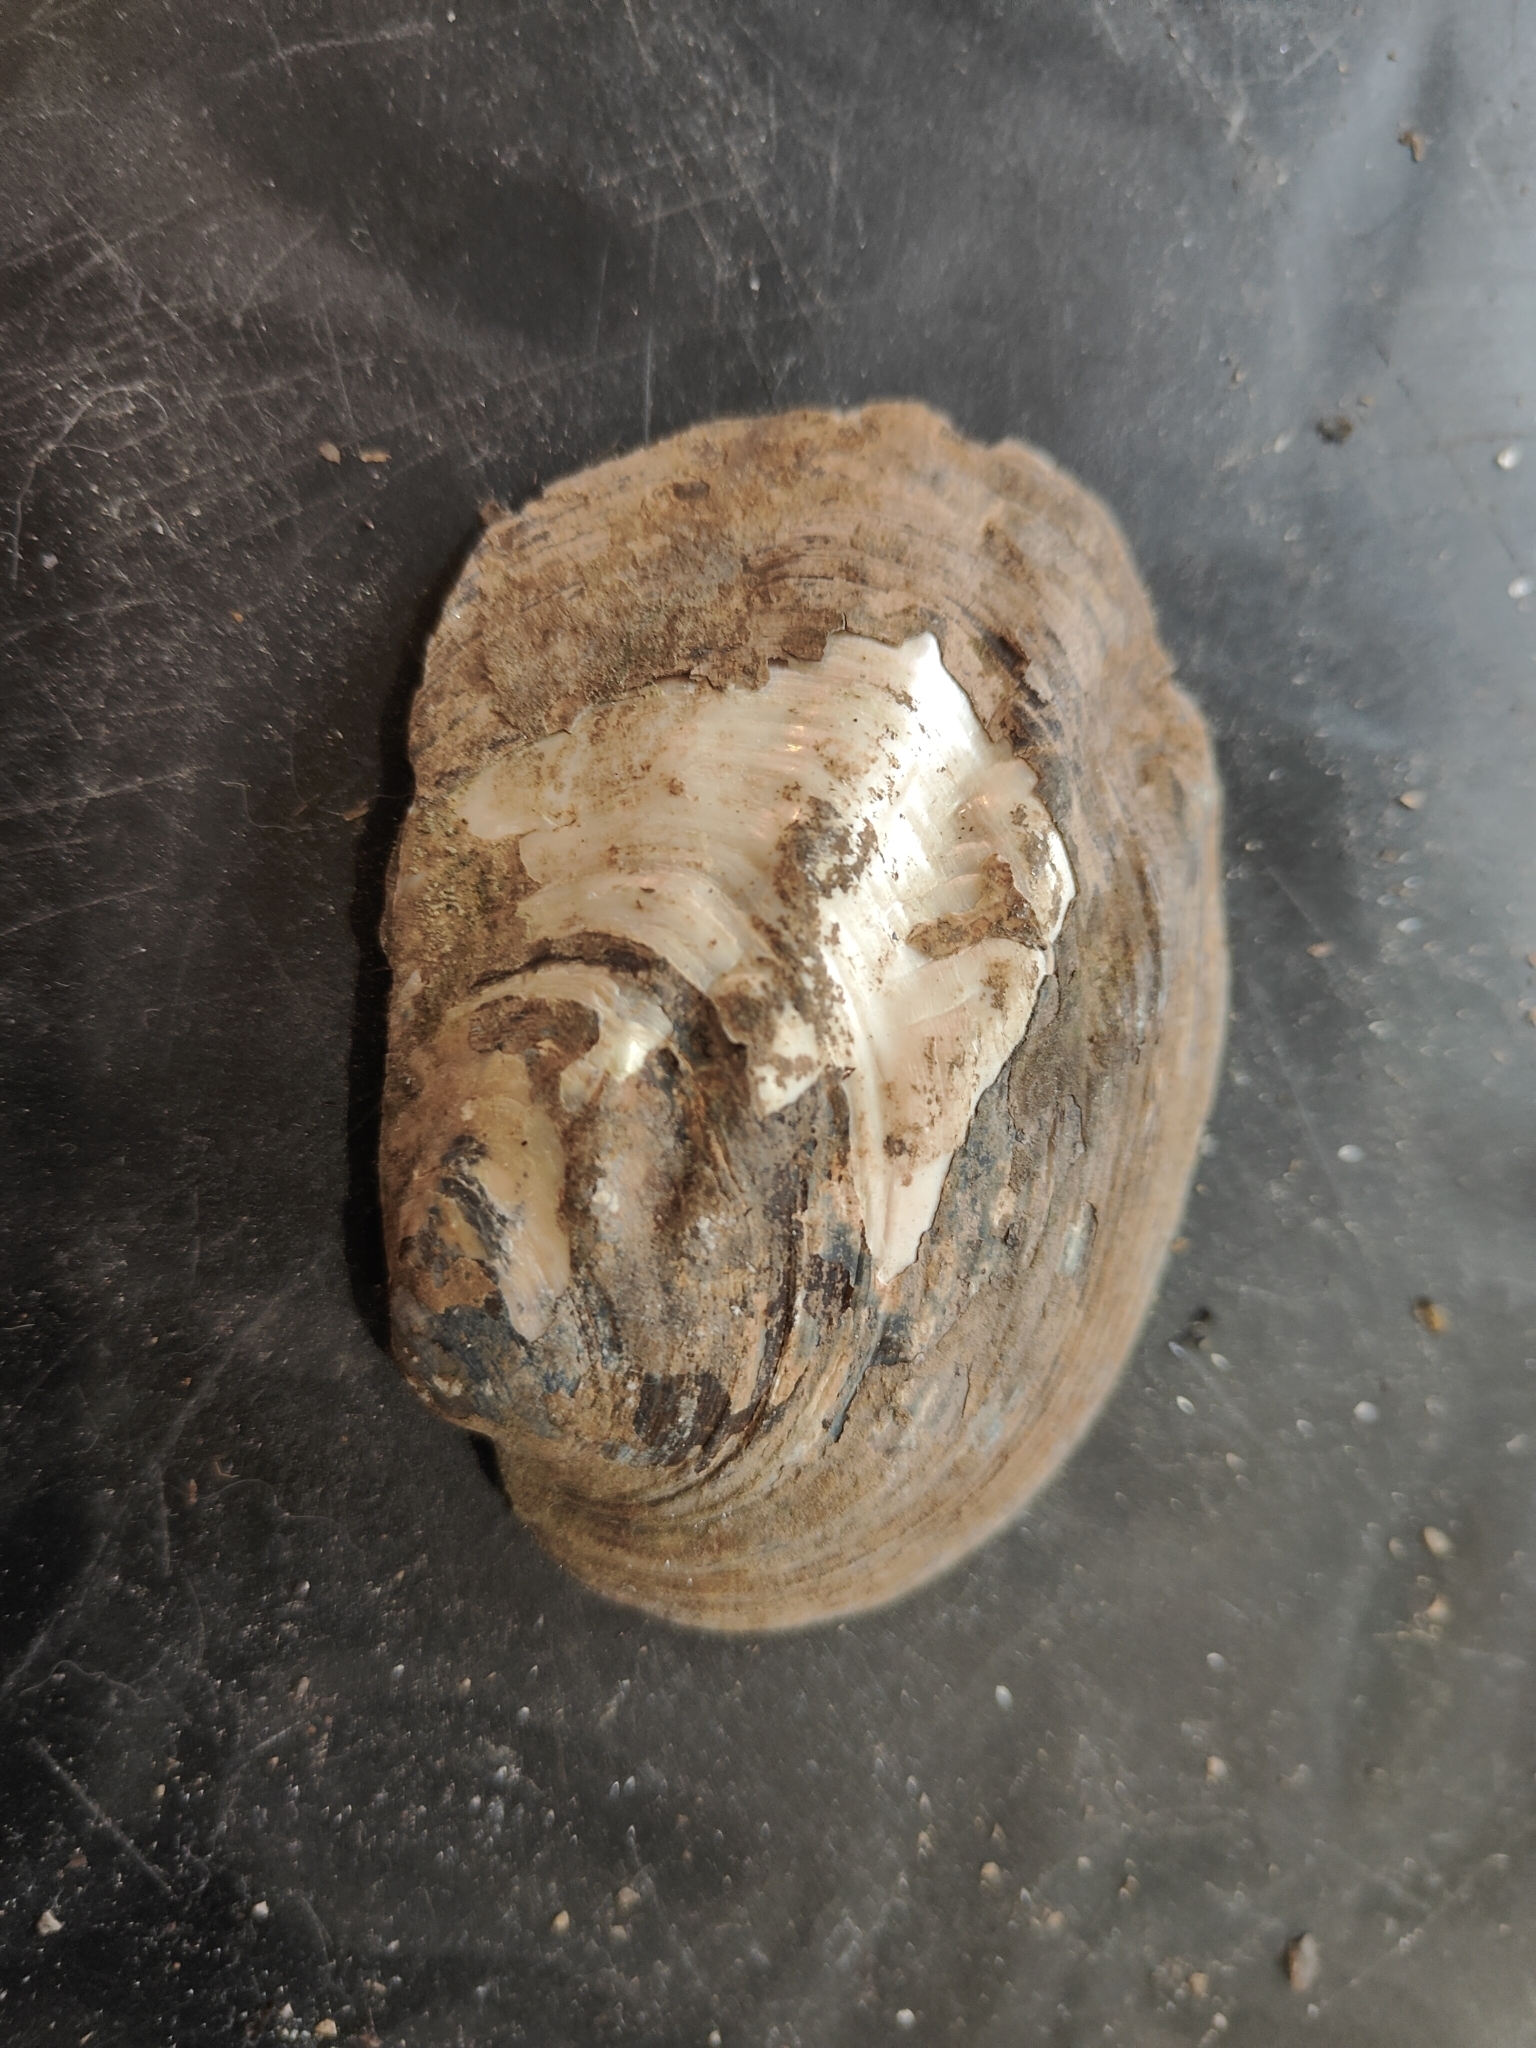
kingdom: Animalia
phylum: Mollusca
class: Bivalvia
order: Unionida
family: Unionidae
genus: Amblema
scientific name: Amblema plicata
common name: Threeridge
